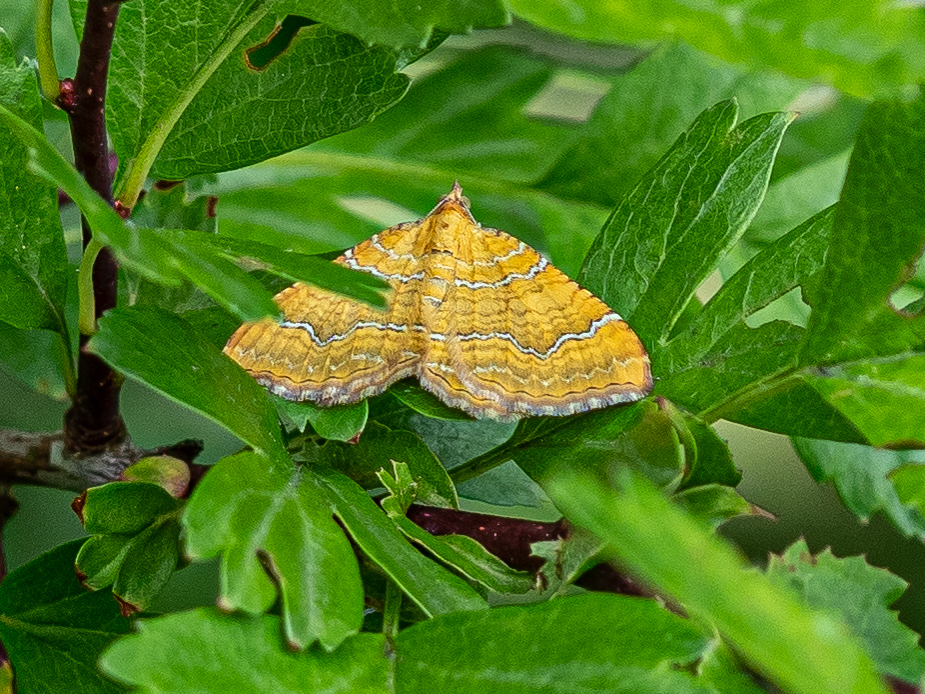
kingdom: Animalia
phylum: Arthropoda
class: Insecta
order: Lepidoptera
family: Geometridae
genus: Camptogramma
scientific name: Camptogramma bilineata
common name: Yellow shell
